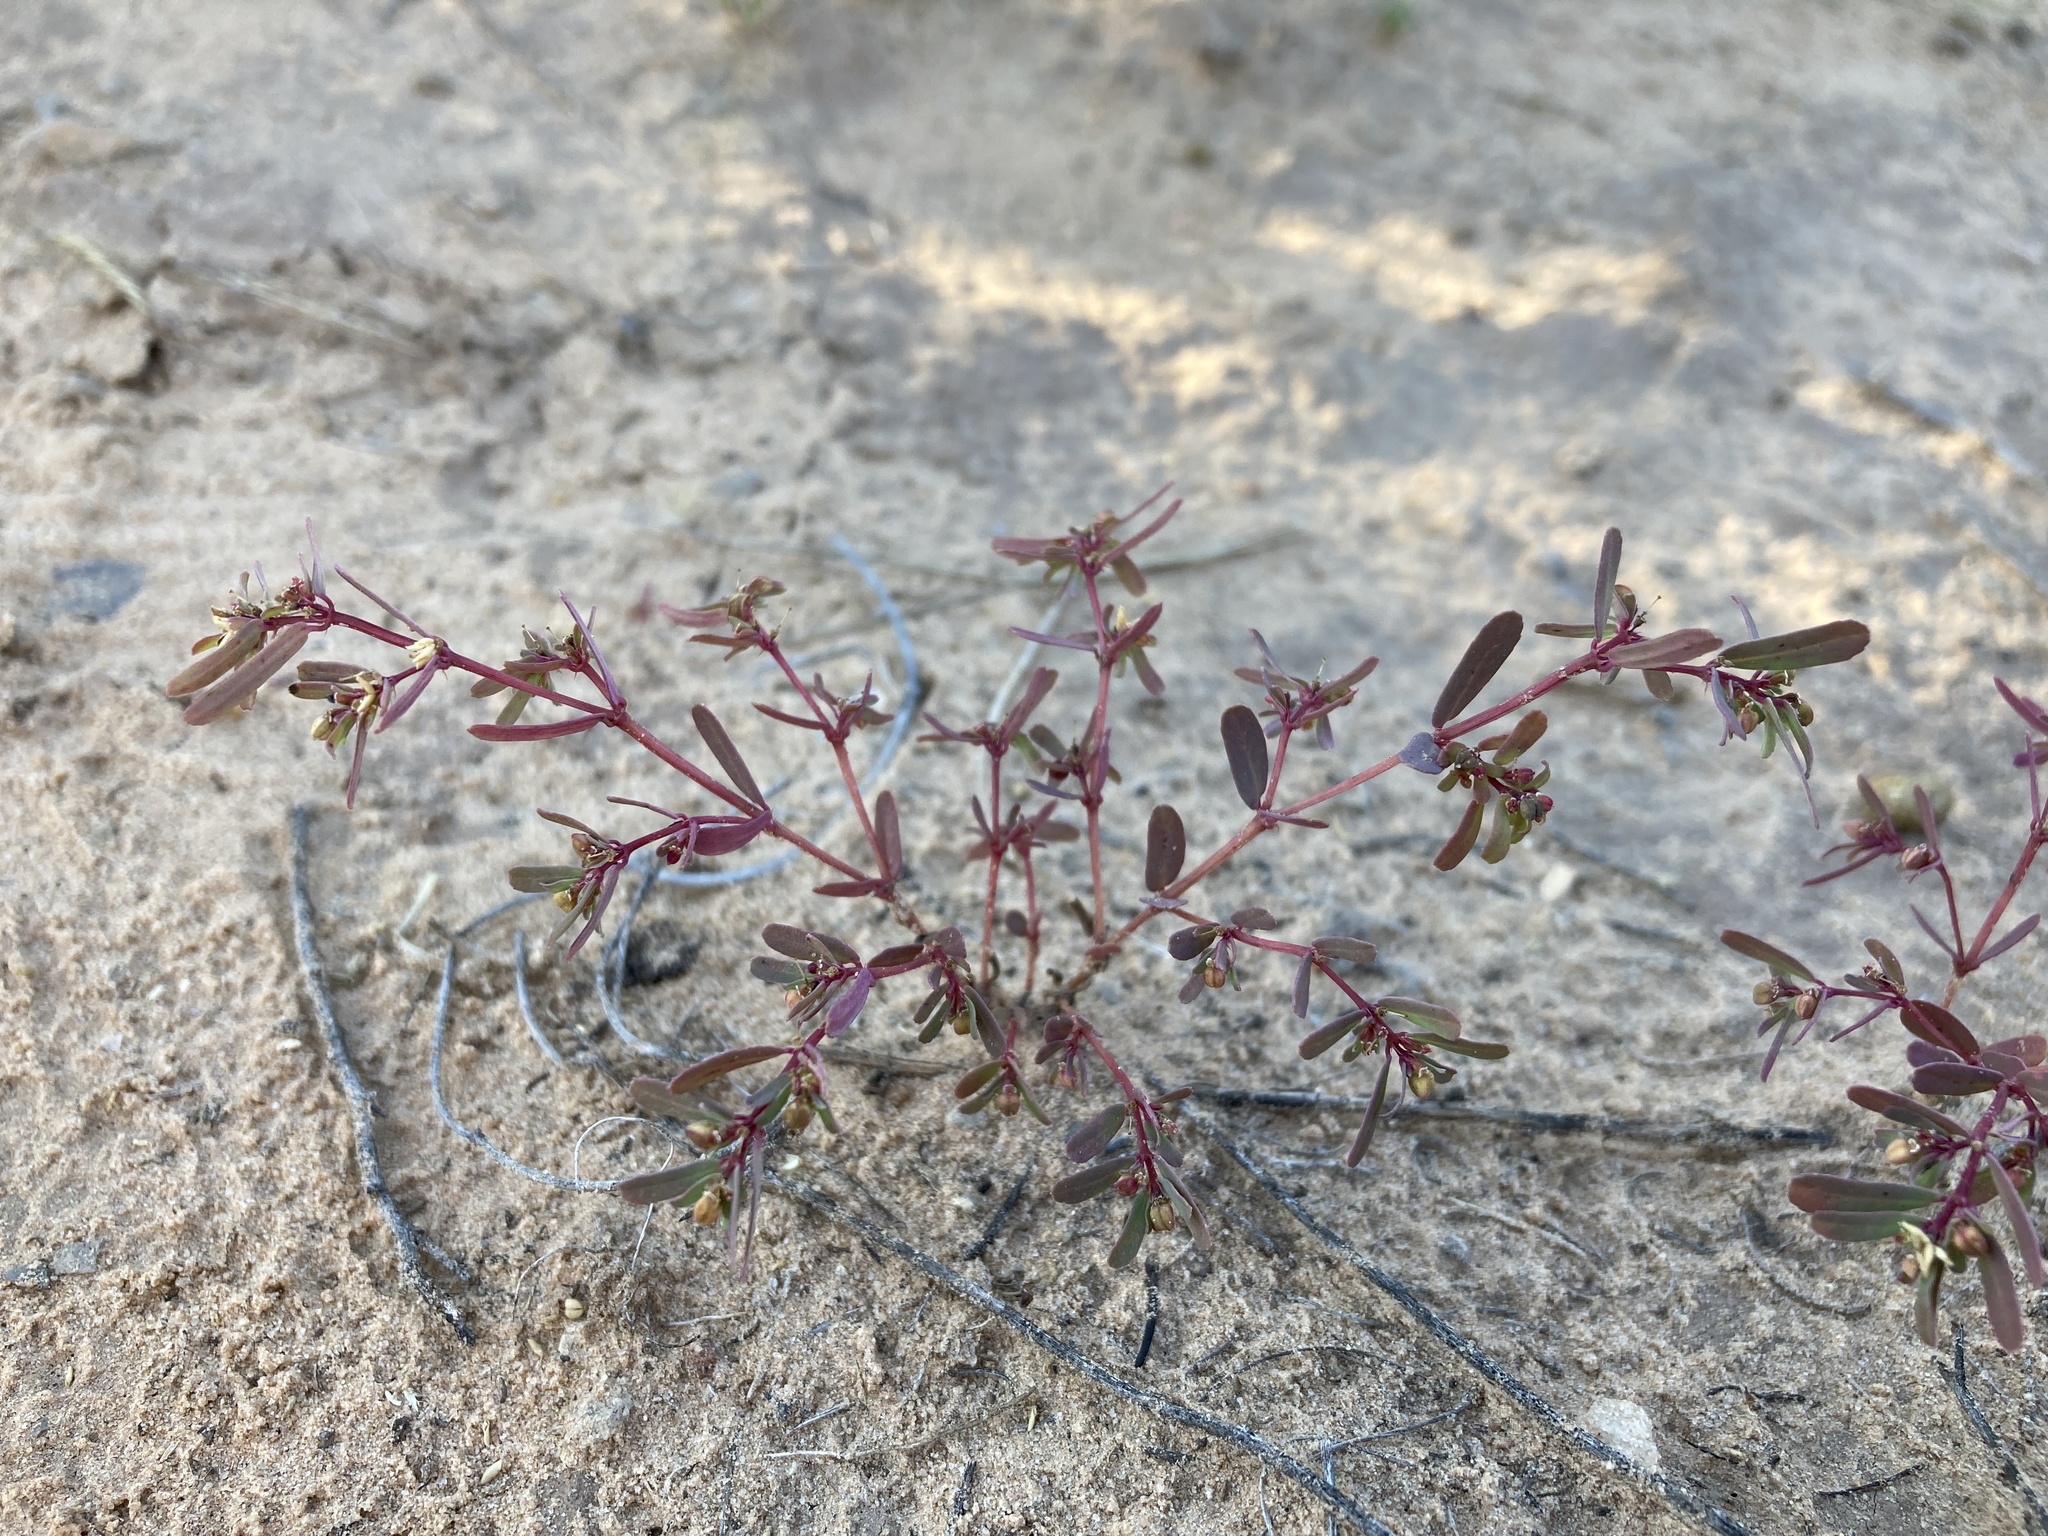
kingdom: Plantae
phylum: Tracheophyta
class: Magnoliopsida
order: Malpighiales
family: Euphorbiaceae
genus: Euphorbia
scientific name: Euphorbia serpillifolia
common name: Thyme-leaf spurge
